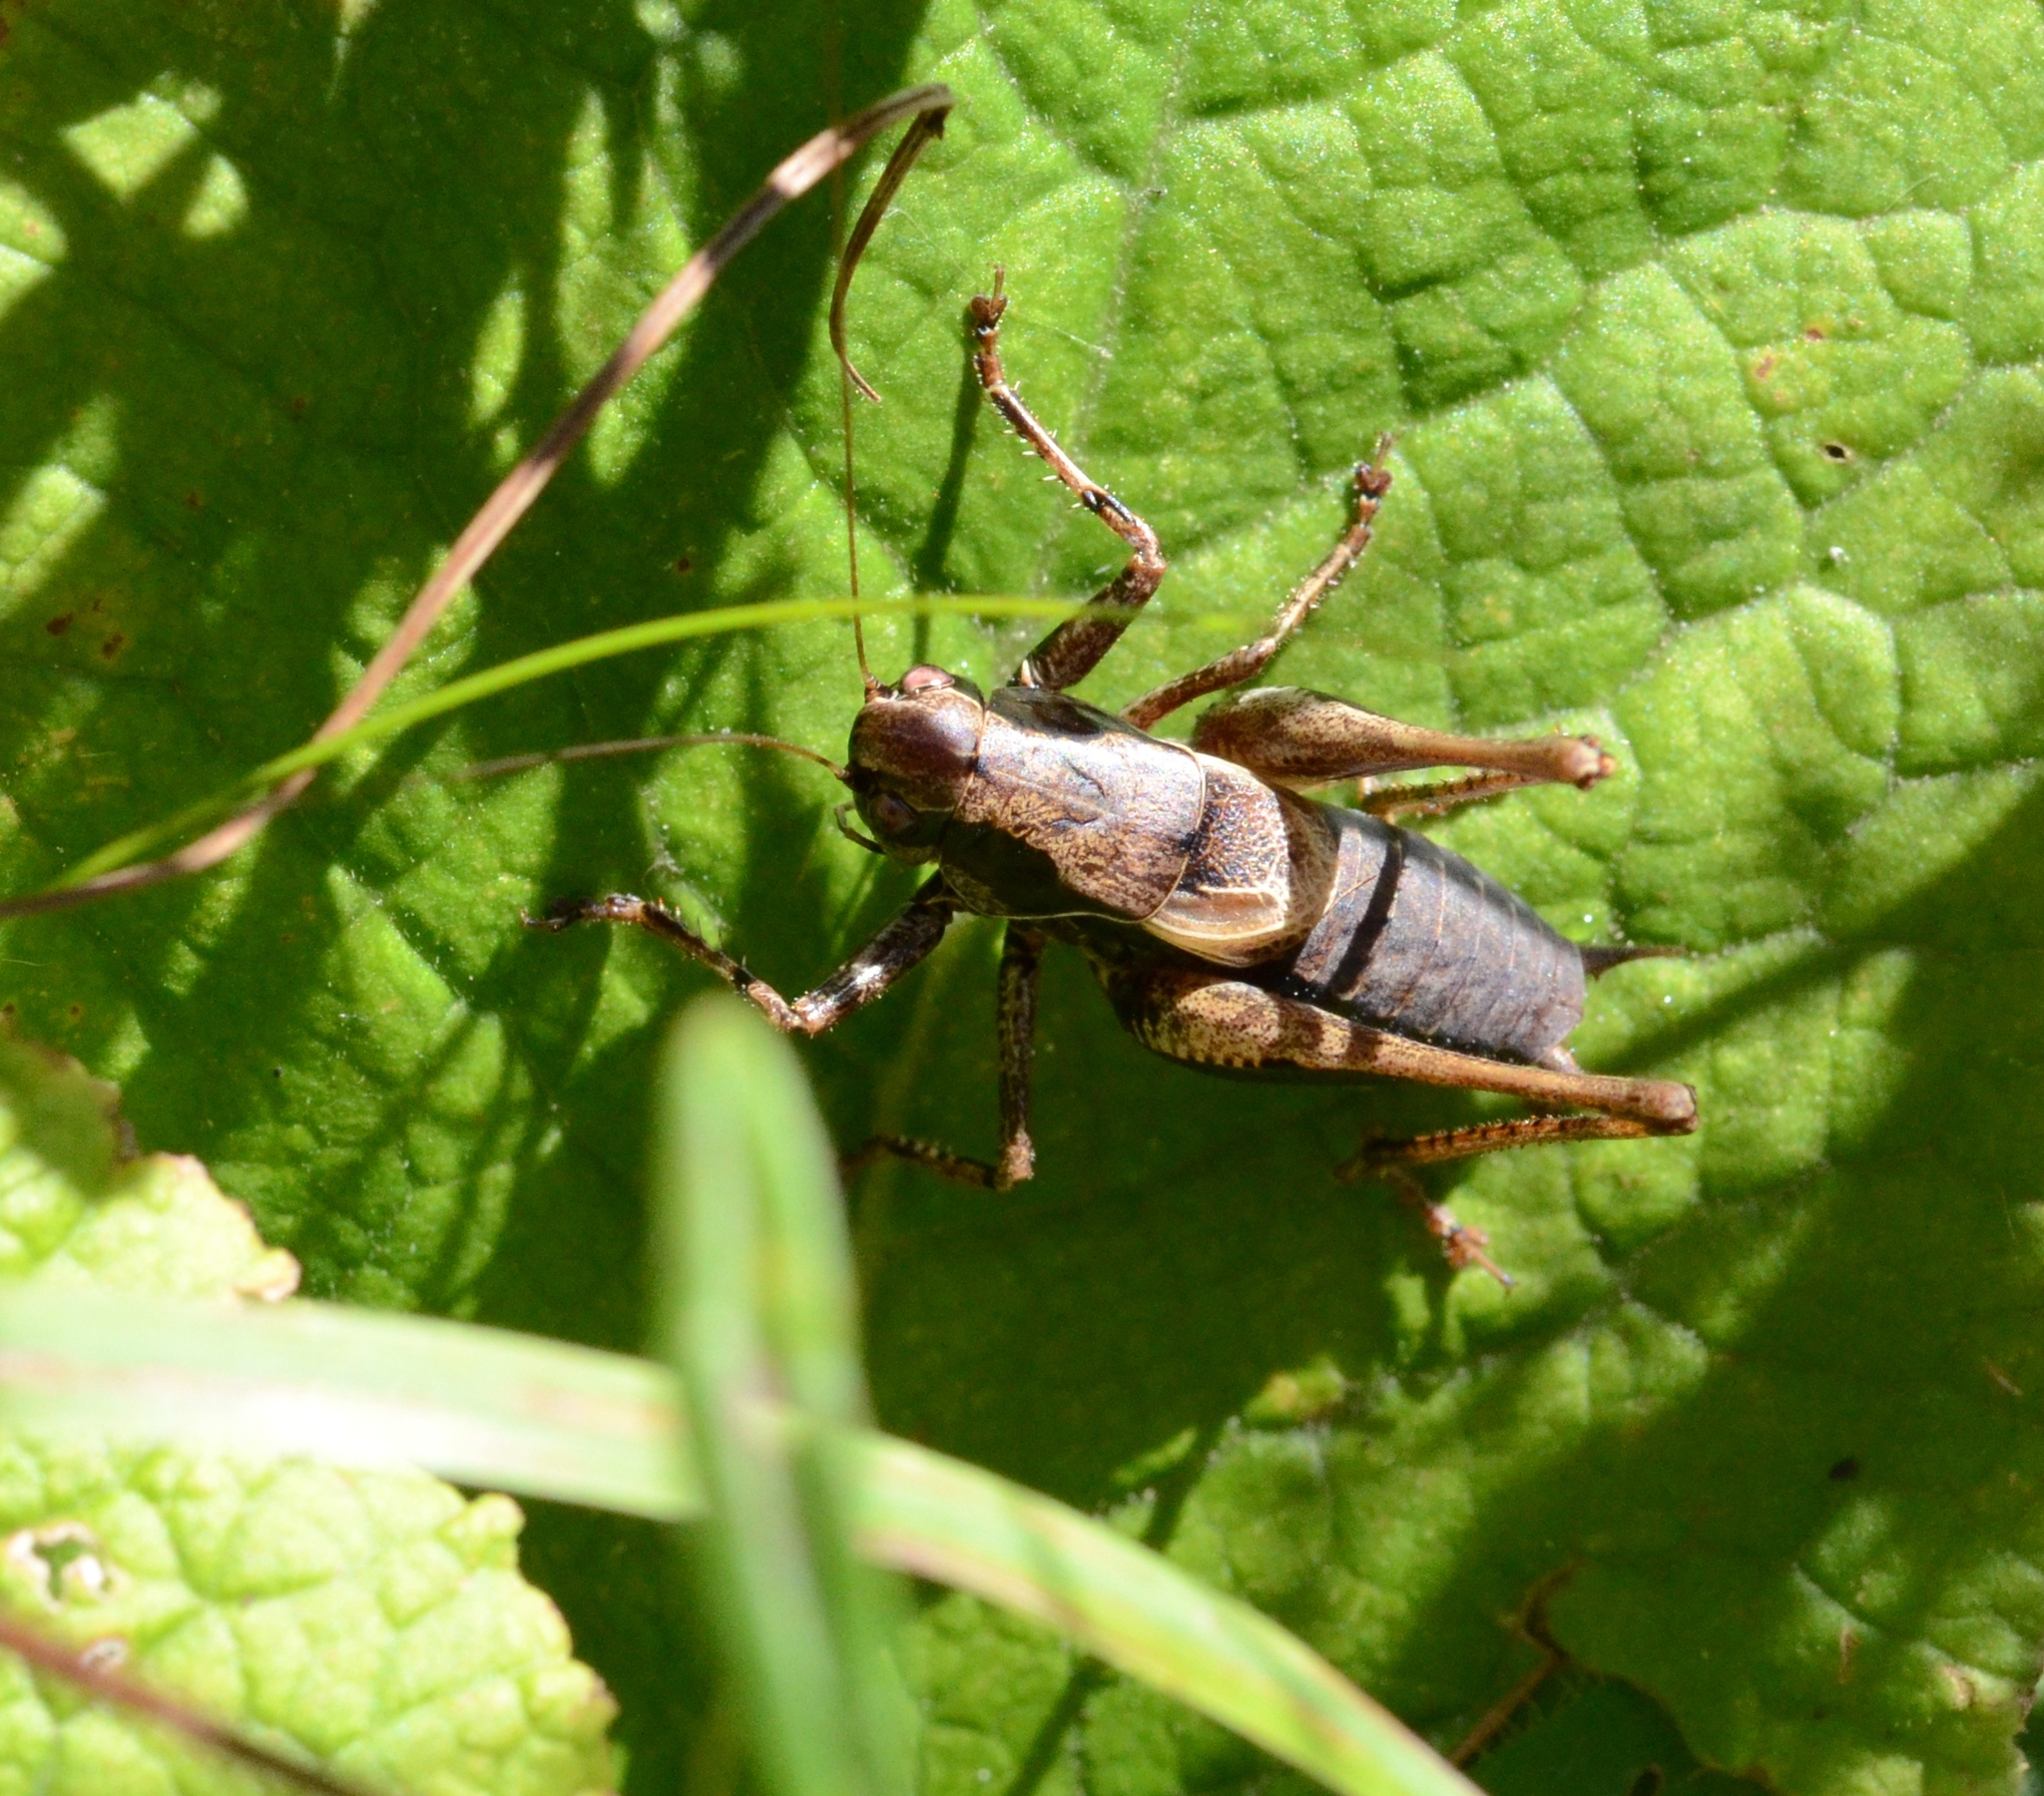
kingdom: Animalia
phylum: Arthropoda
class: Insecta
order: Orthoptera
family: Tettigoniidae
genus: Pholidoptera
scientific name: Pholidoptera griseoaptera
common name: Dark bush-cricket
